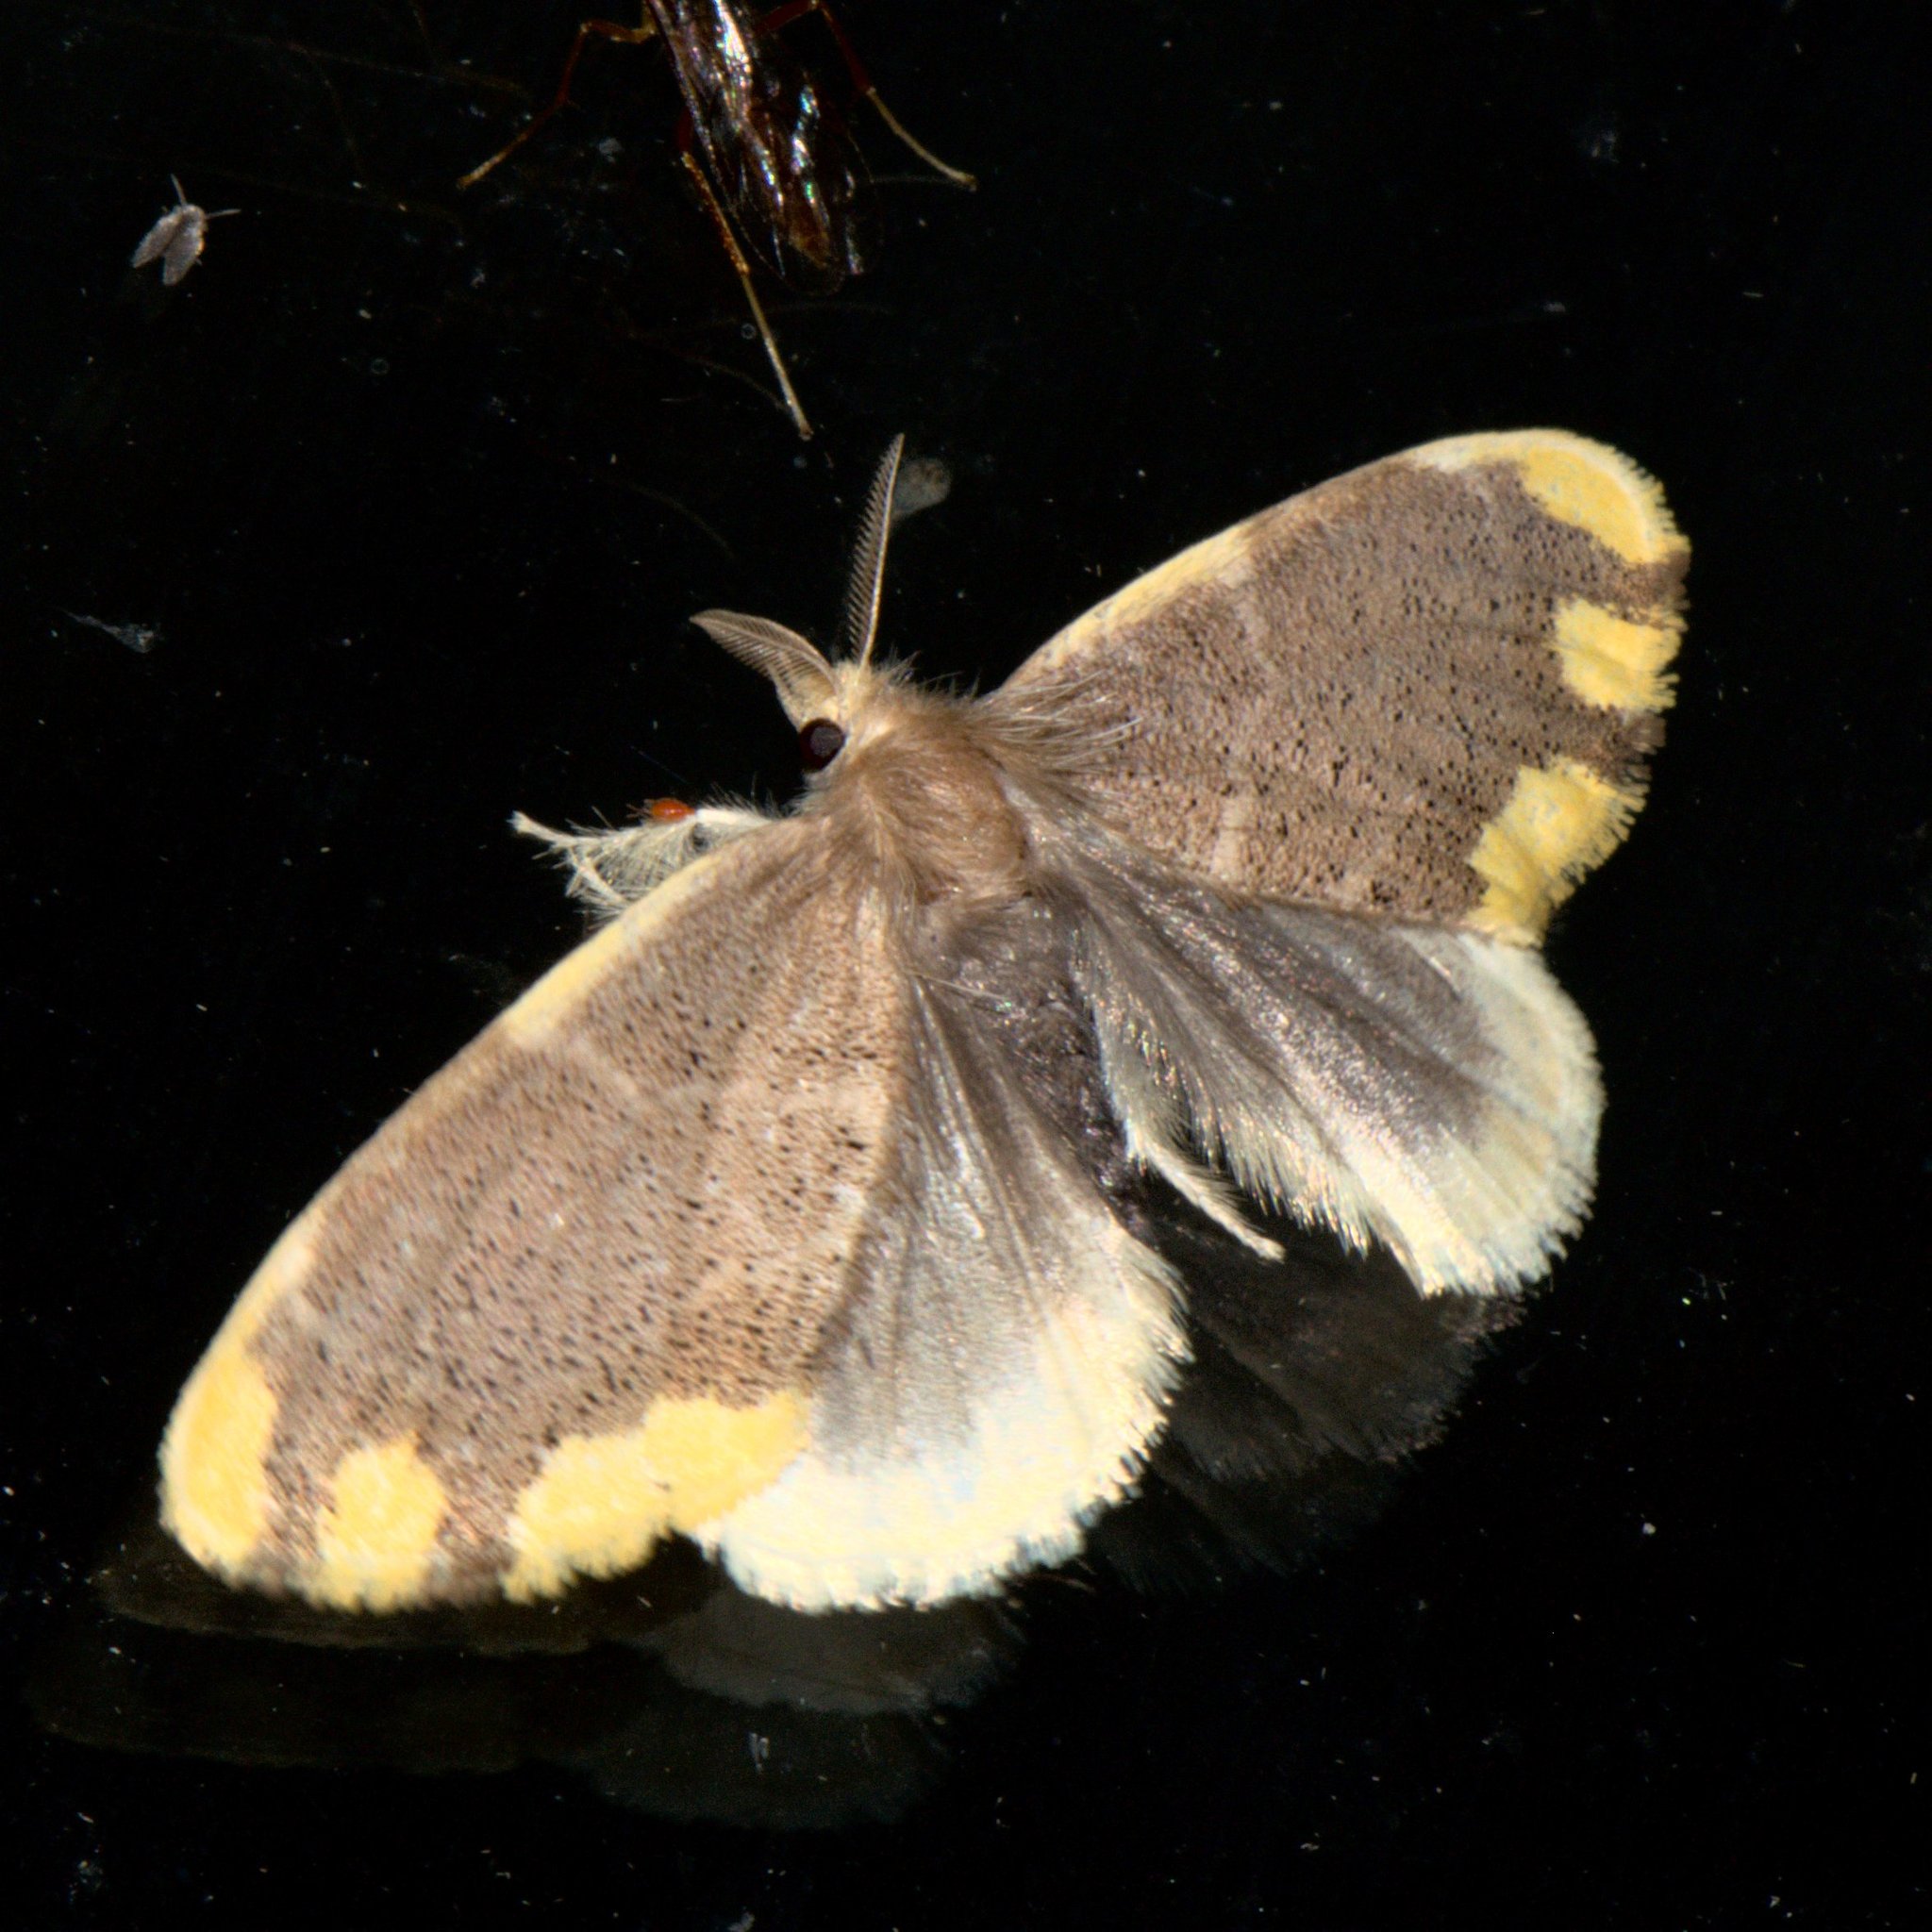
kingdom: Animalia
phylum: Arthropoda
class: Insecta
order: Lepidoptera
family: Erebidae
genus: Orvasca
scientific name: Orvasca subnotata
